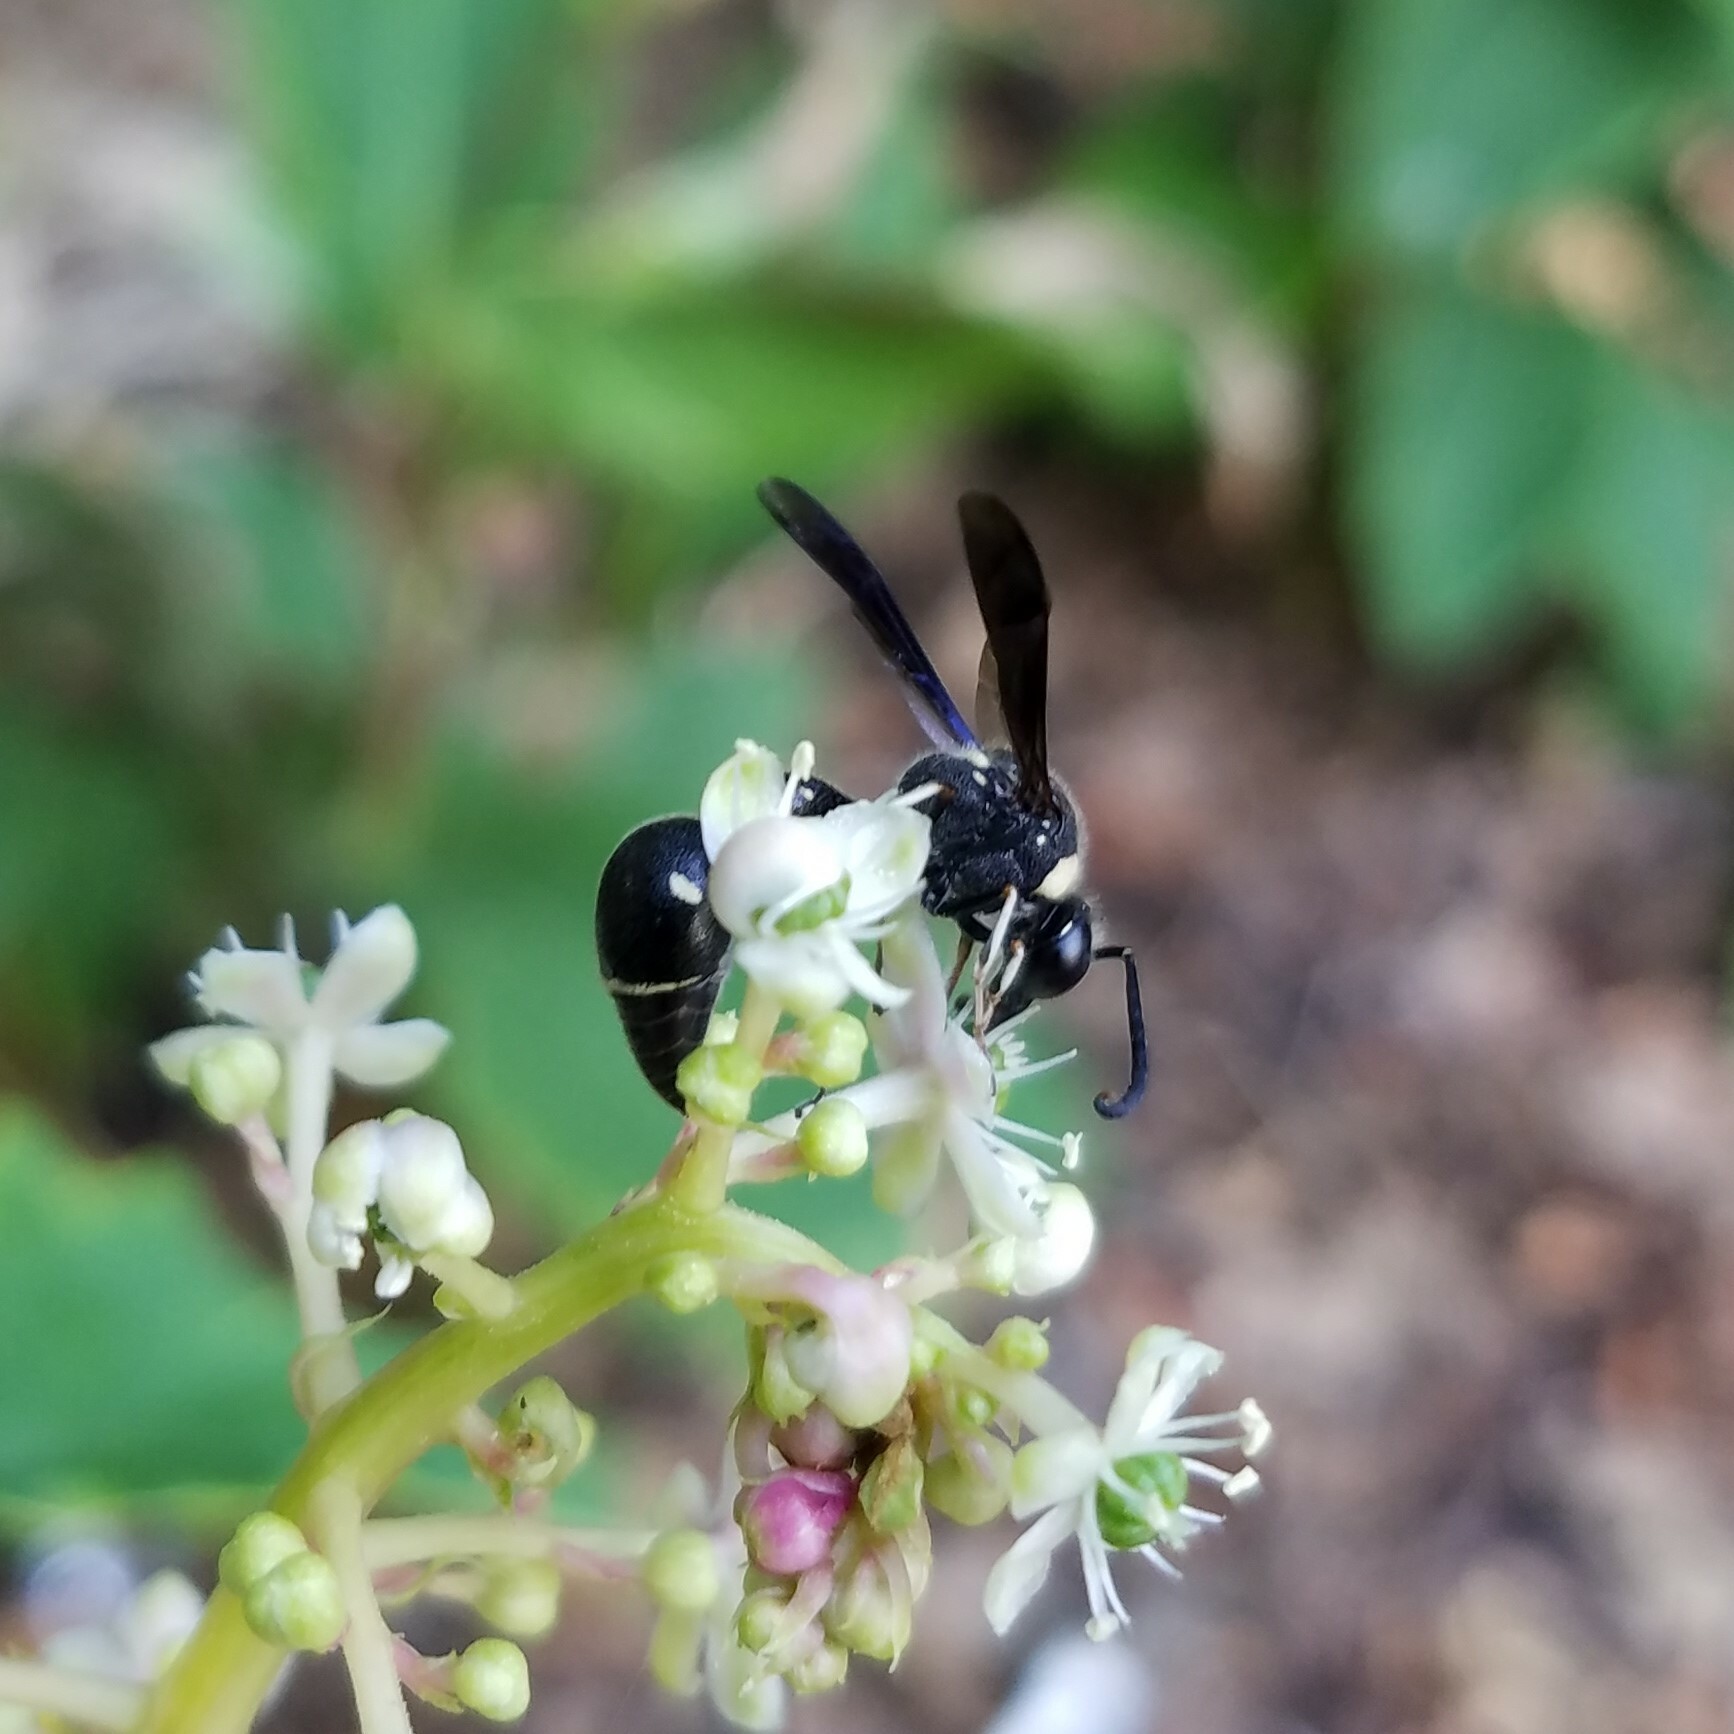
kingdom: Animalia
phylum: Arthropoda
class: Insecta
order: Hymenoptera
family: Vespidae
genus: Eumenes
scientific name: Eumenes fraternus
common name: Fraternal potter wasp
